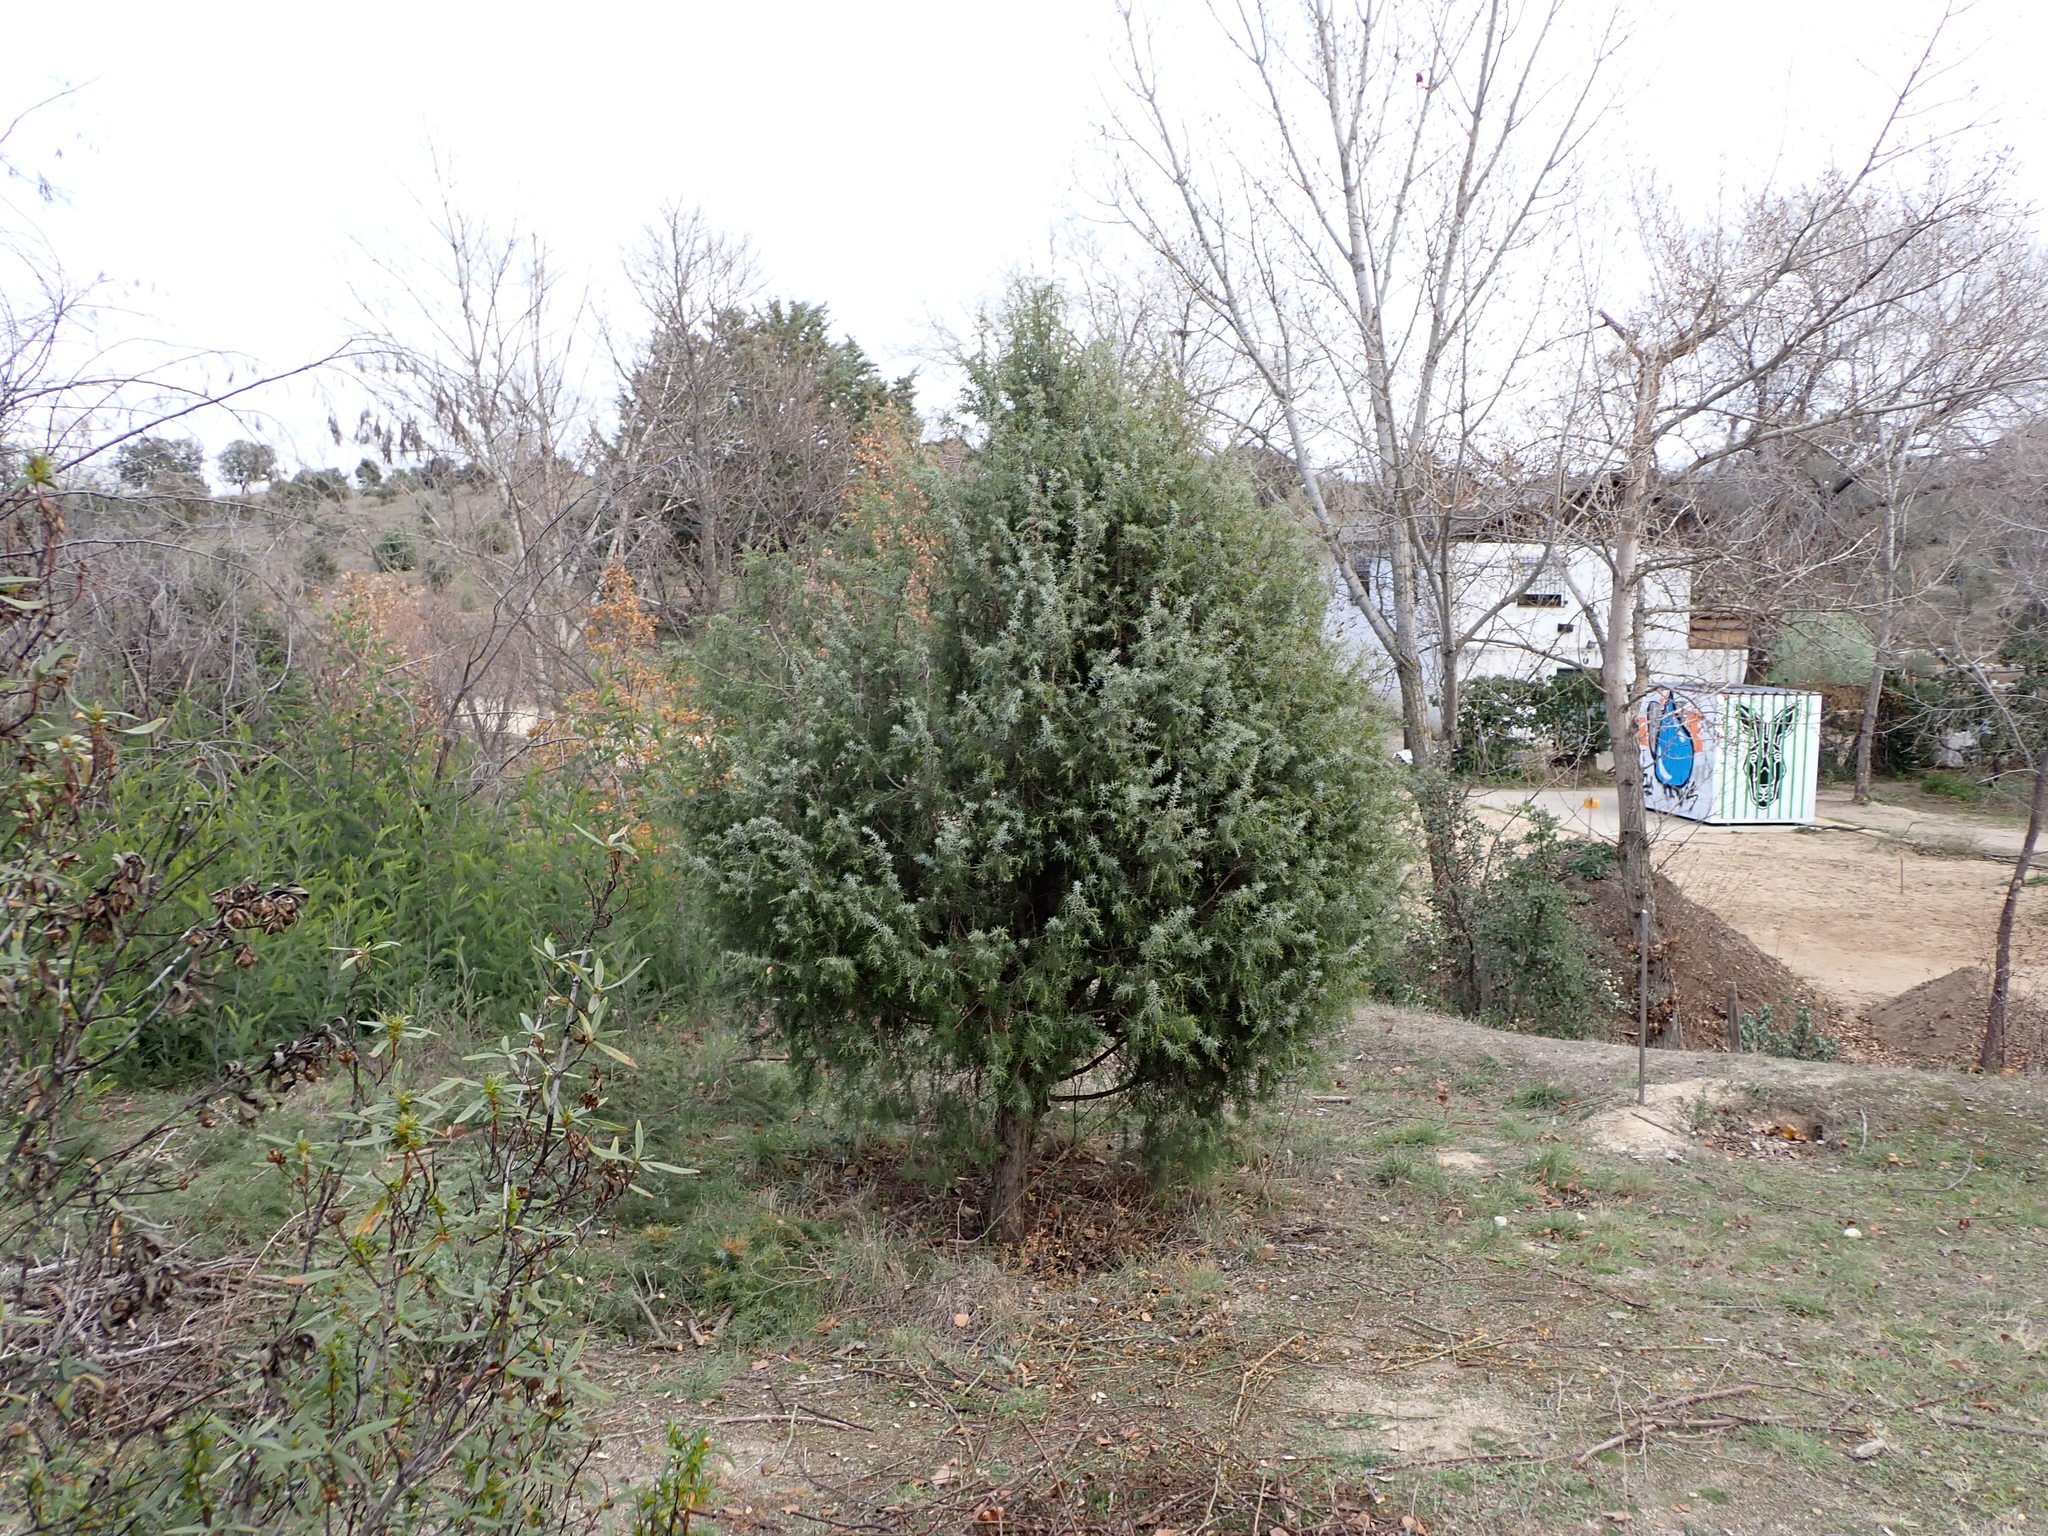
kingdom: Plantae
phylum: Tracheophyta
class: Pinopsida
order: Pinales
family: Cupressaceae
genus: Juniperus
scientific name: Juniperus oxycedrus
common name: Prickly juniper
